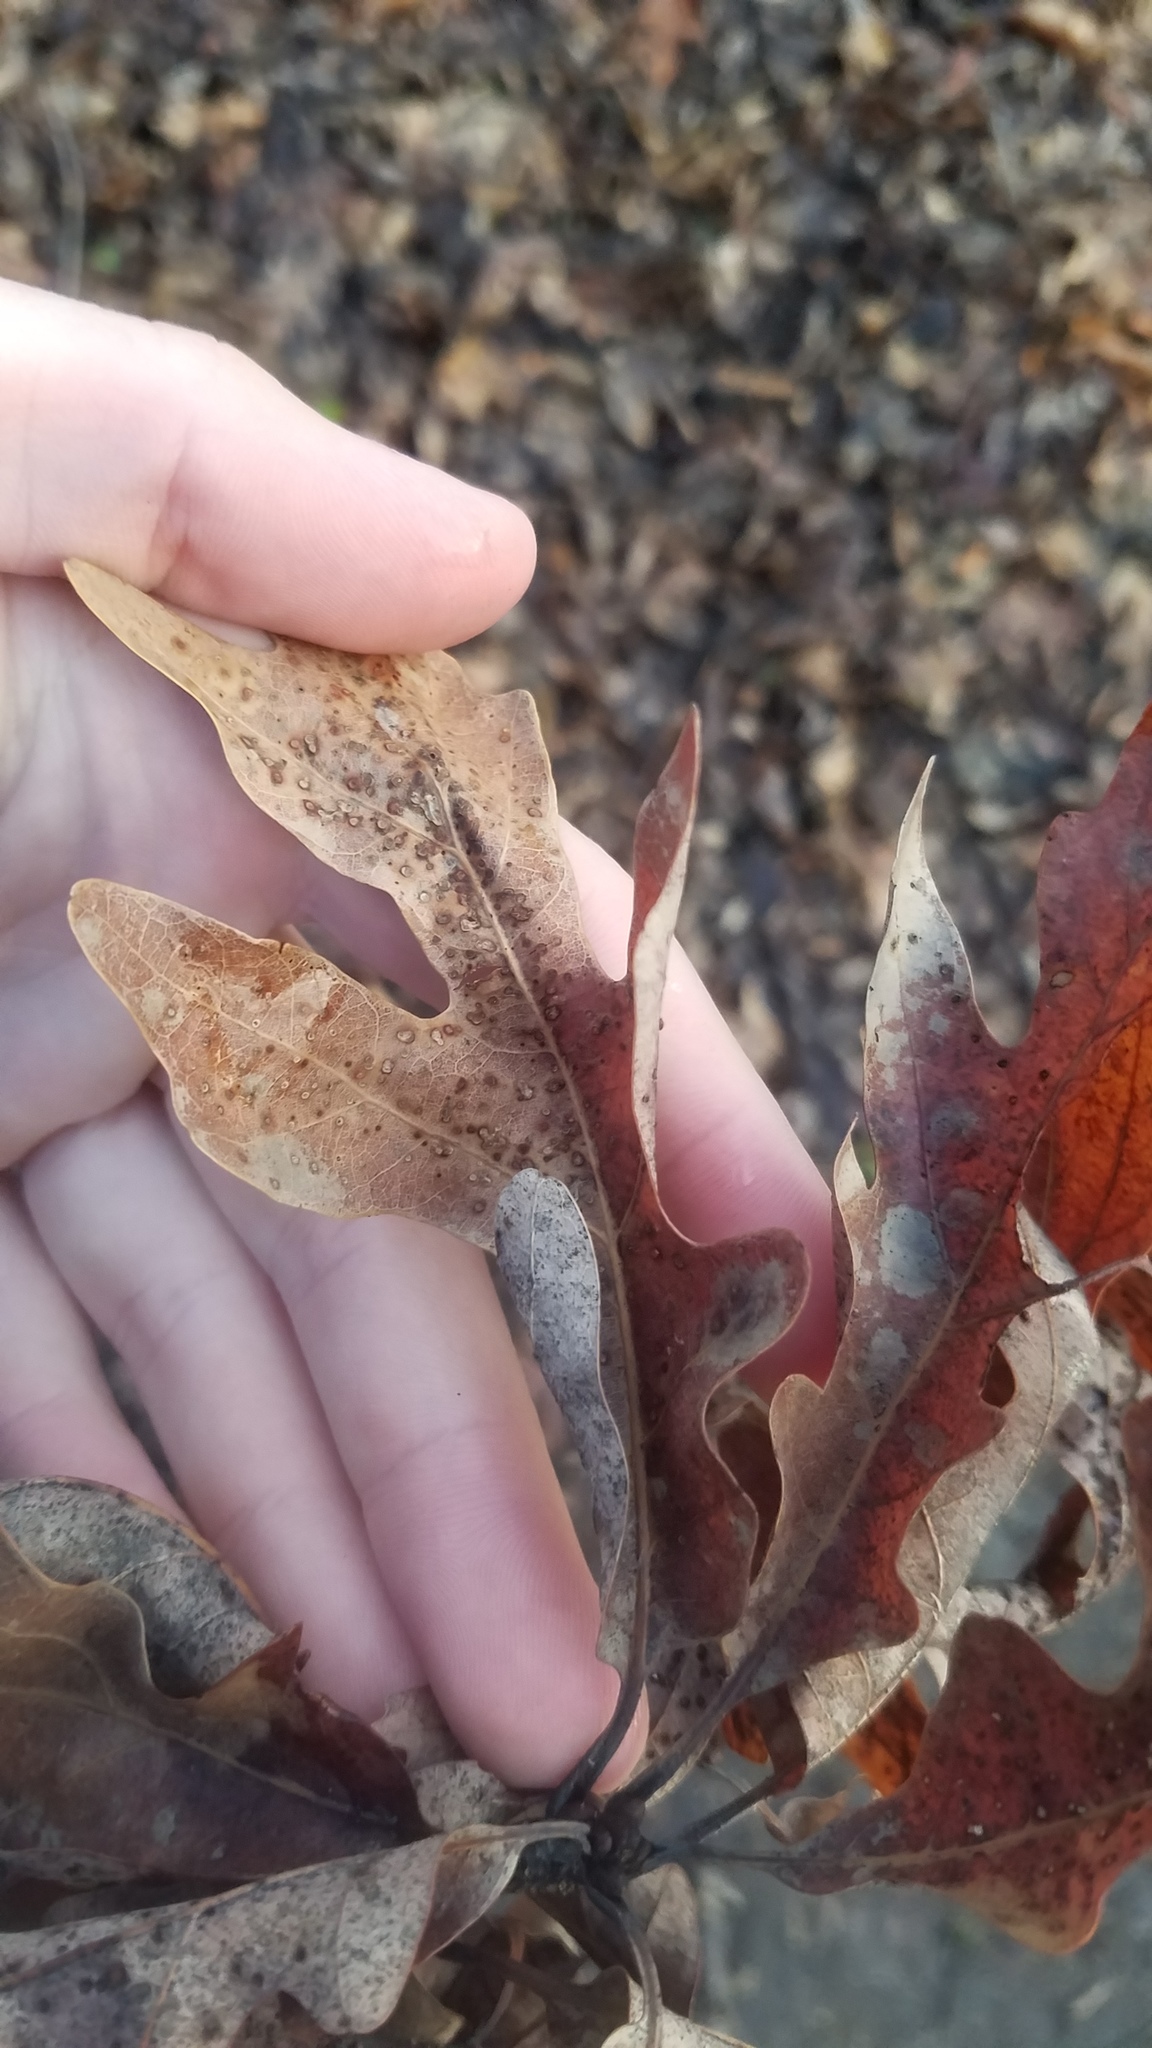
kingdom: Plantae
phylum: Tracheophyta
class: Magnoliopsida
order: Fagales
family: Fagaceae
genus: Quercus
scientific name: Quercus alba
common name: White oak
